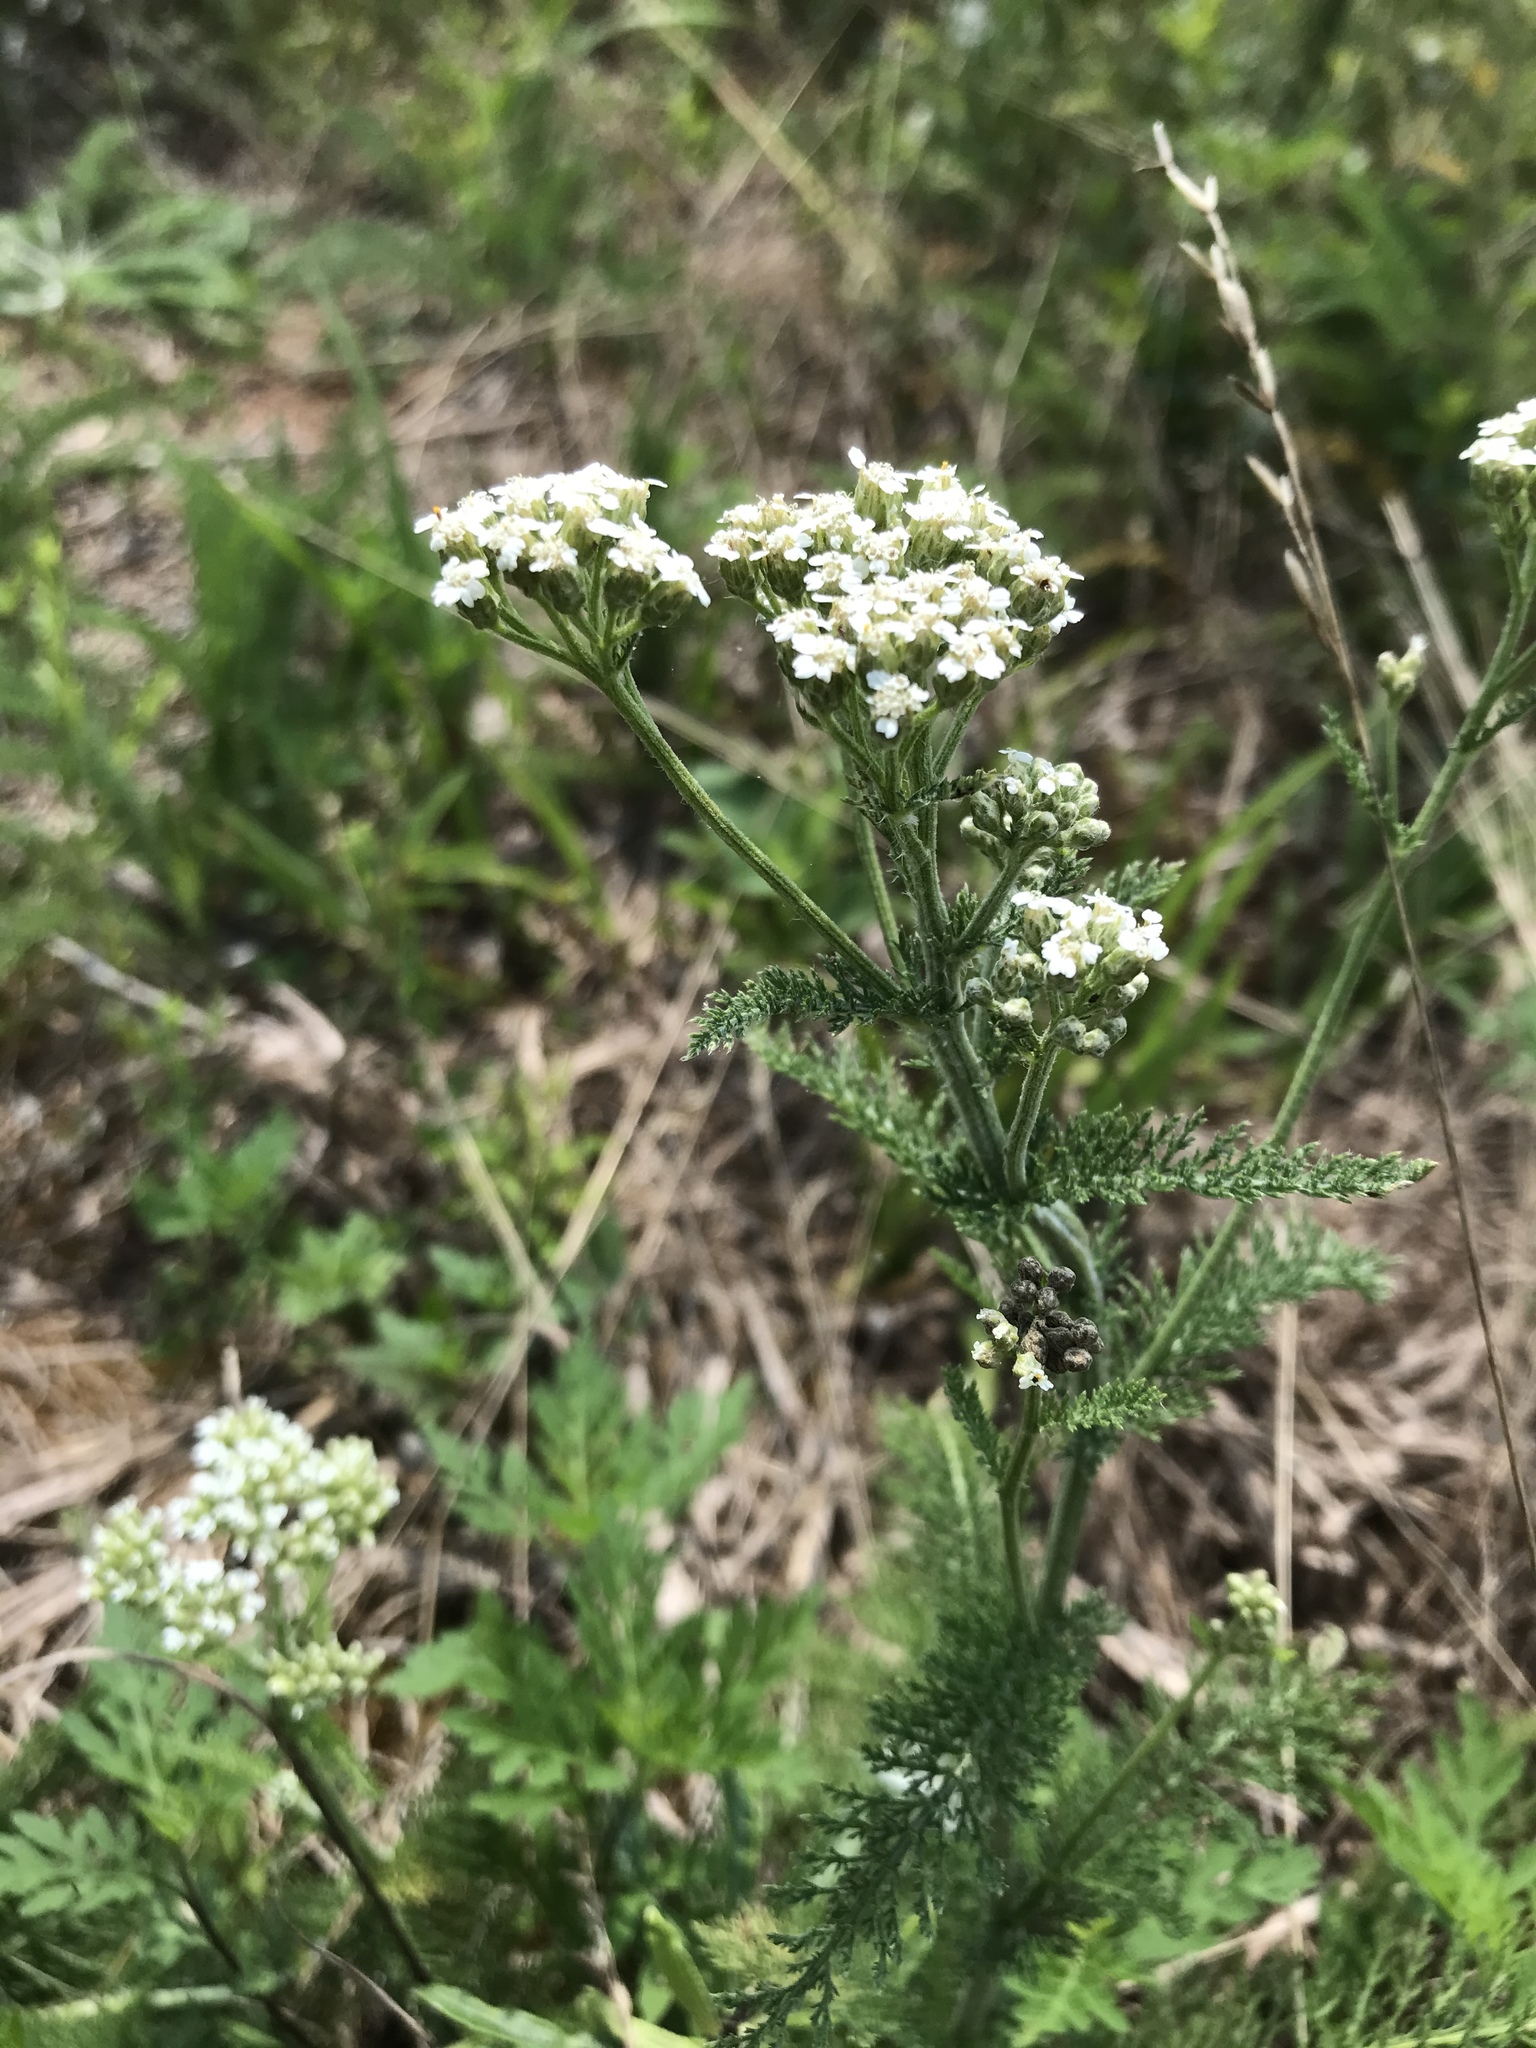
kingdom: Plantae
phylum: Tracheophyta
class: Magnoliopsida
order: Asterales
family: Asteraceae
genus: Achillea
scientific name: Achillea millefolium
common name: Yarrow
